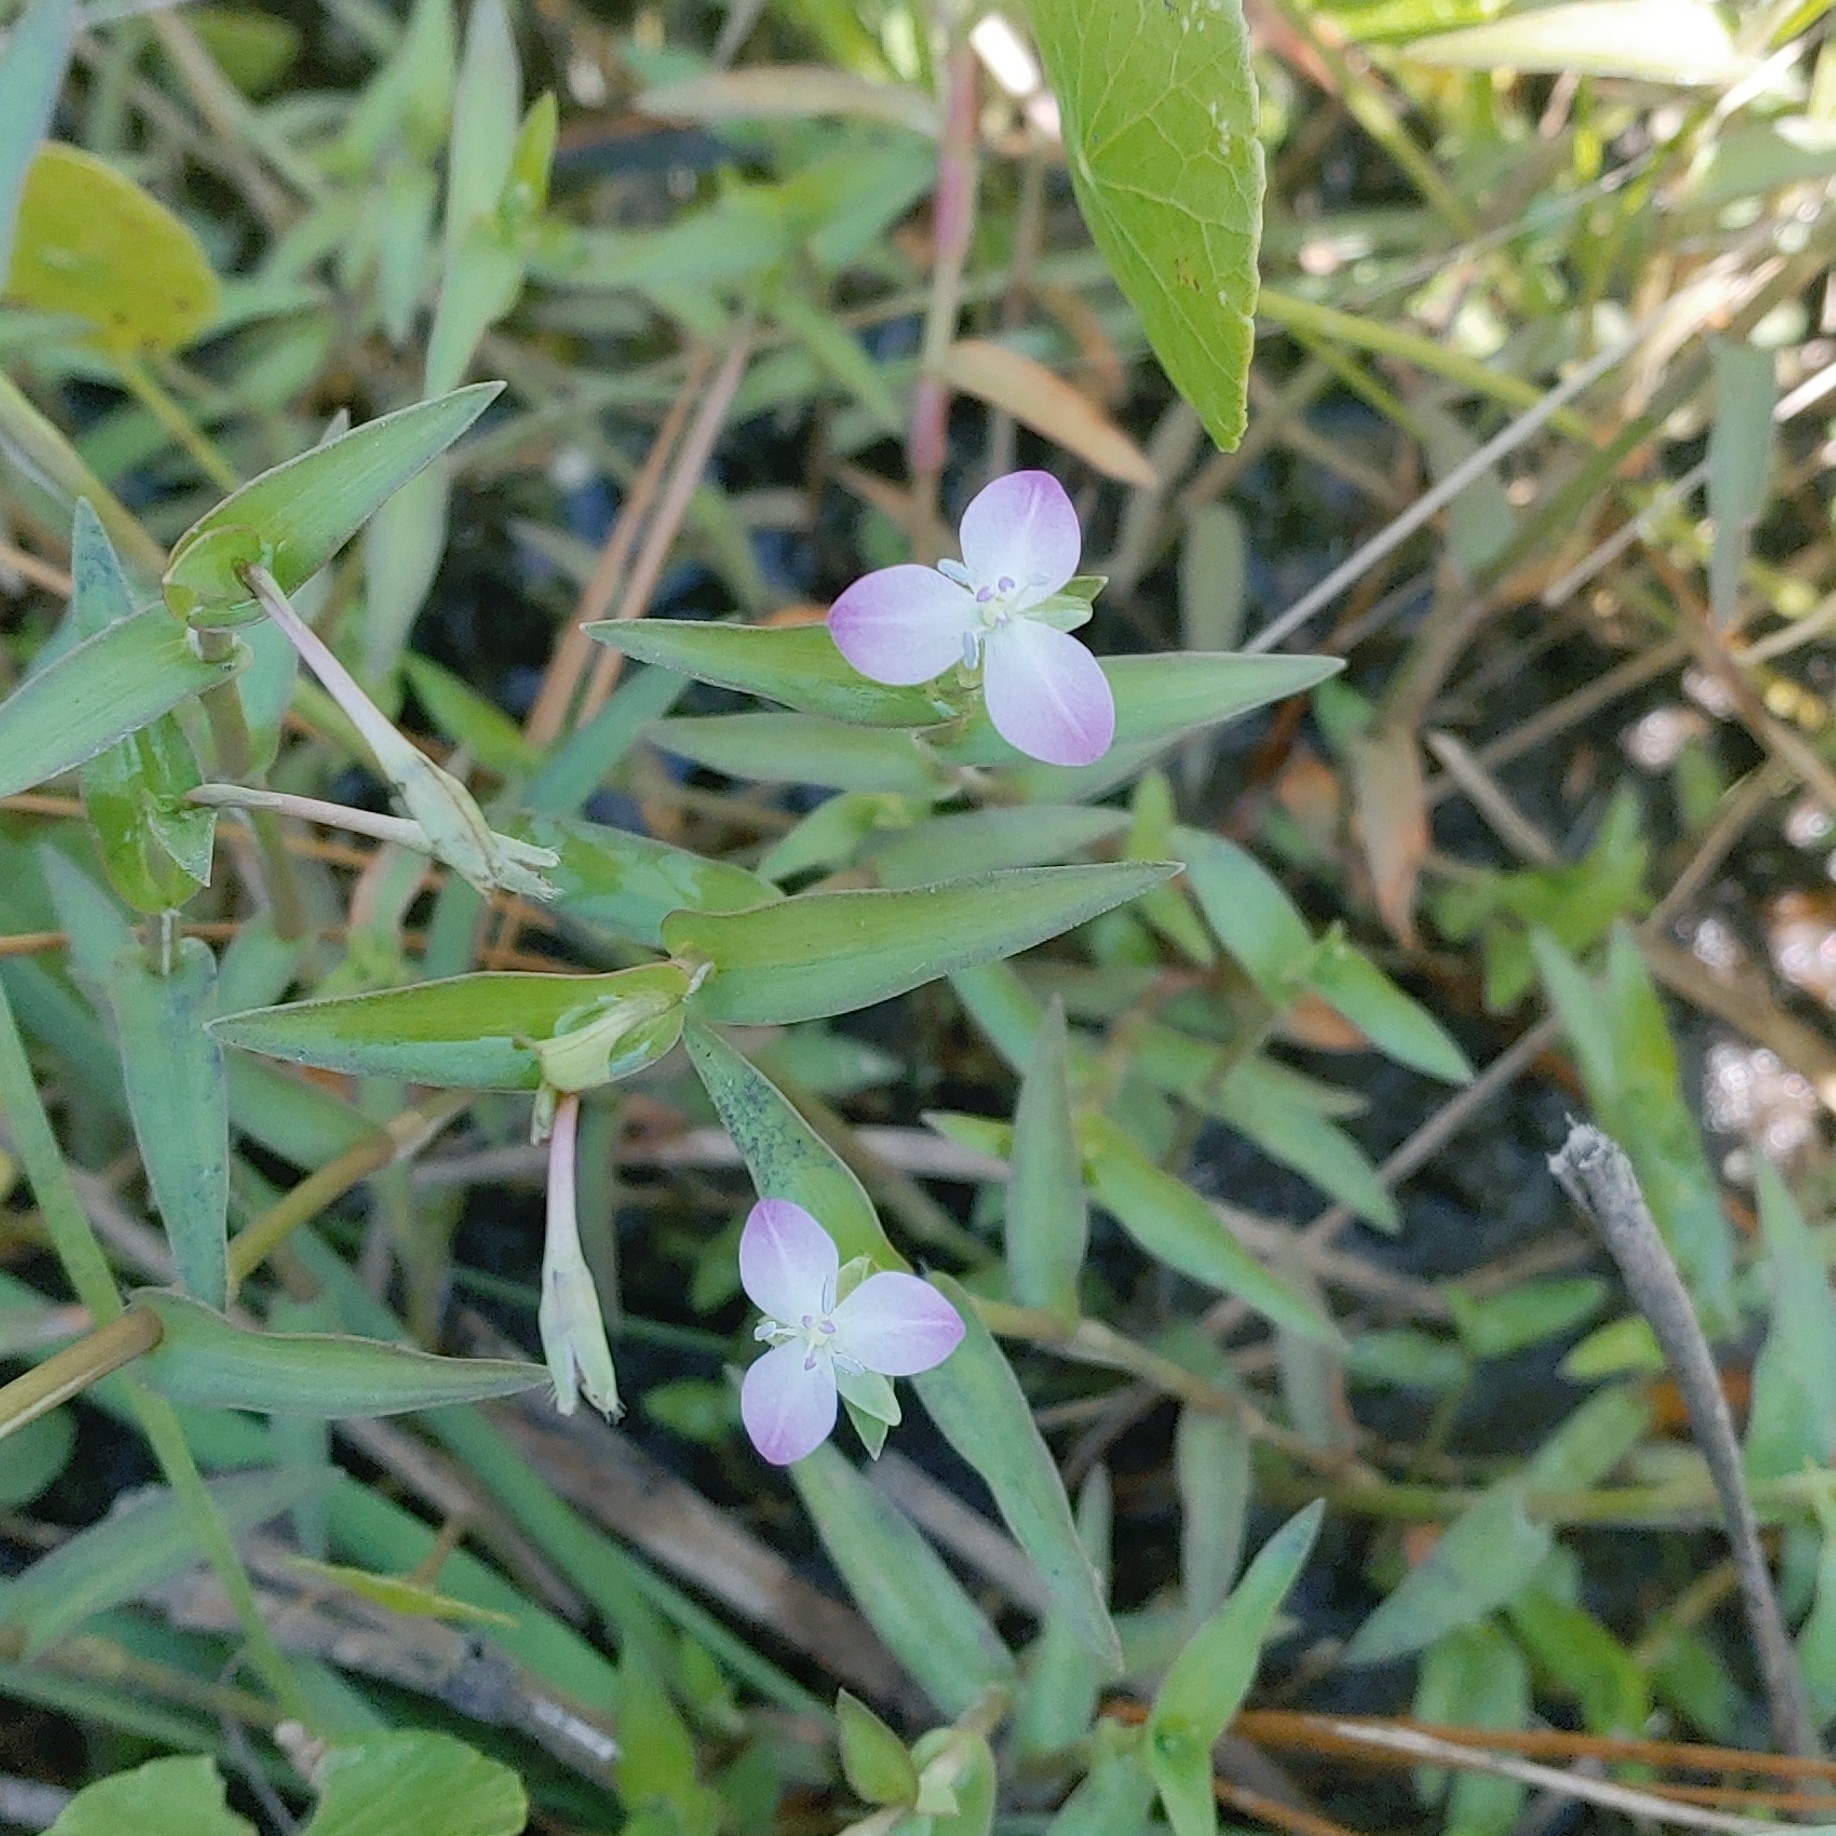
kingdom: Plantae
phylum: Tracheophyta
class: Liliopsida
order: Commelinales
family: Commelinaceae
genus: Murdannia
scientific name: Murdannia keisak
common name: Wartremoving herb
